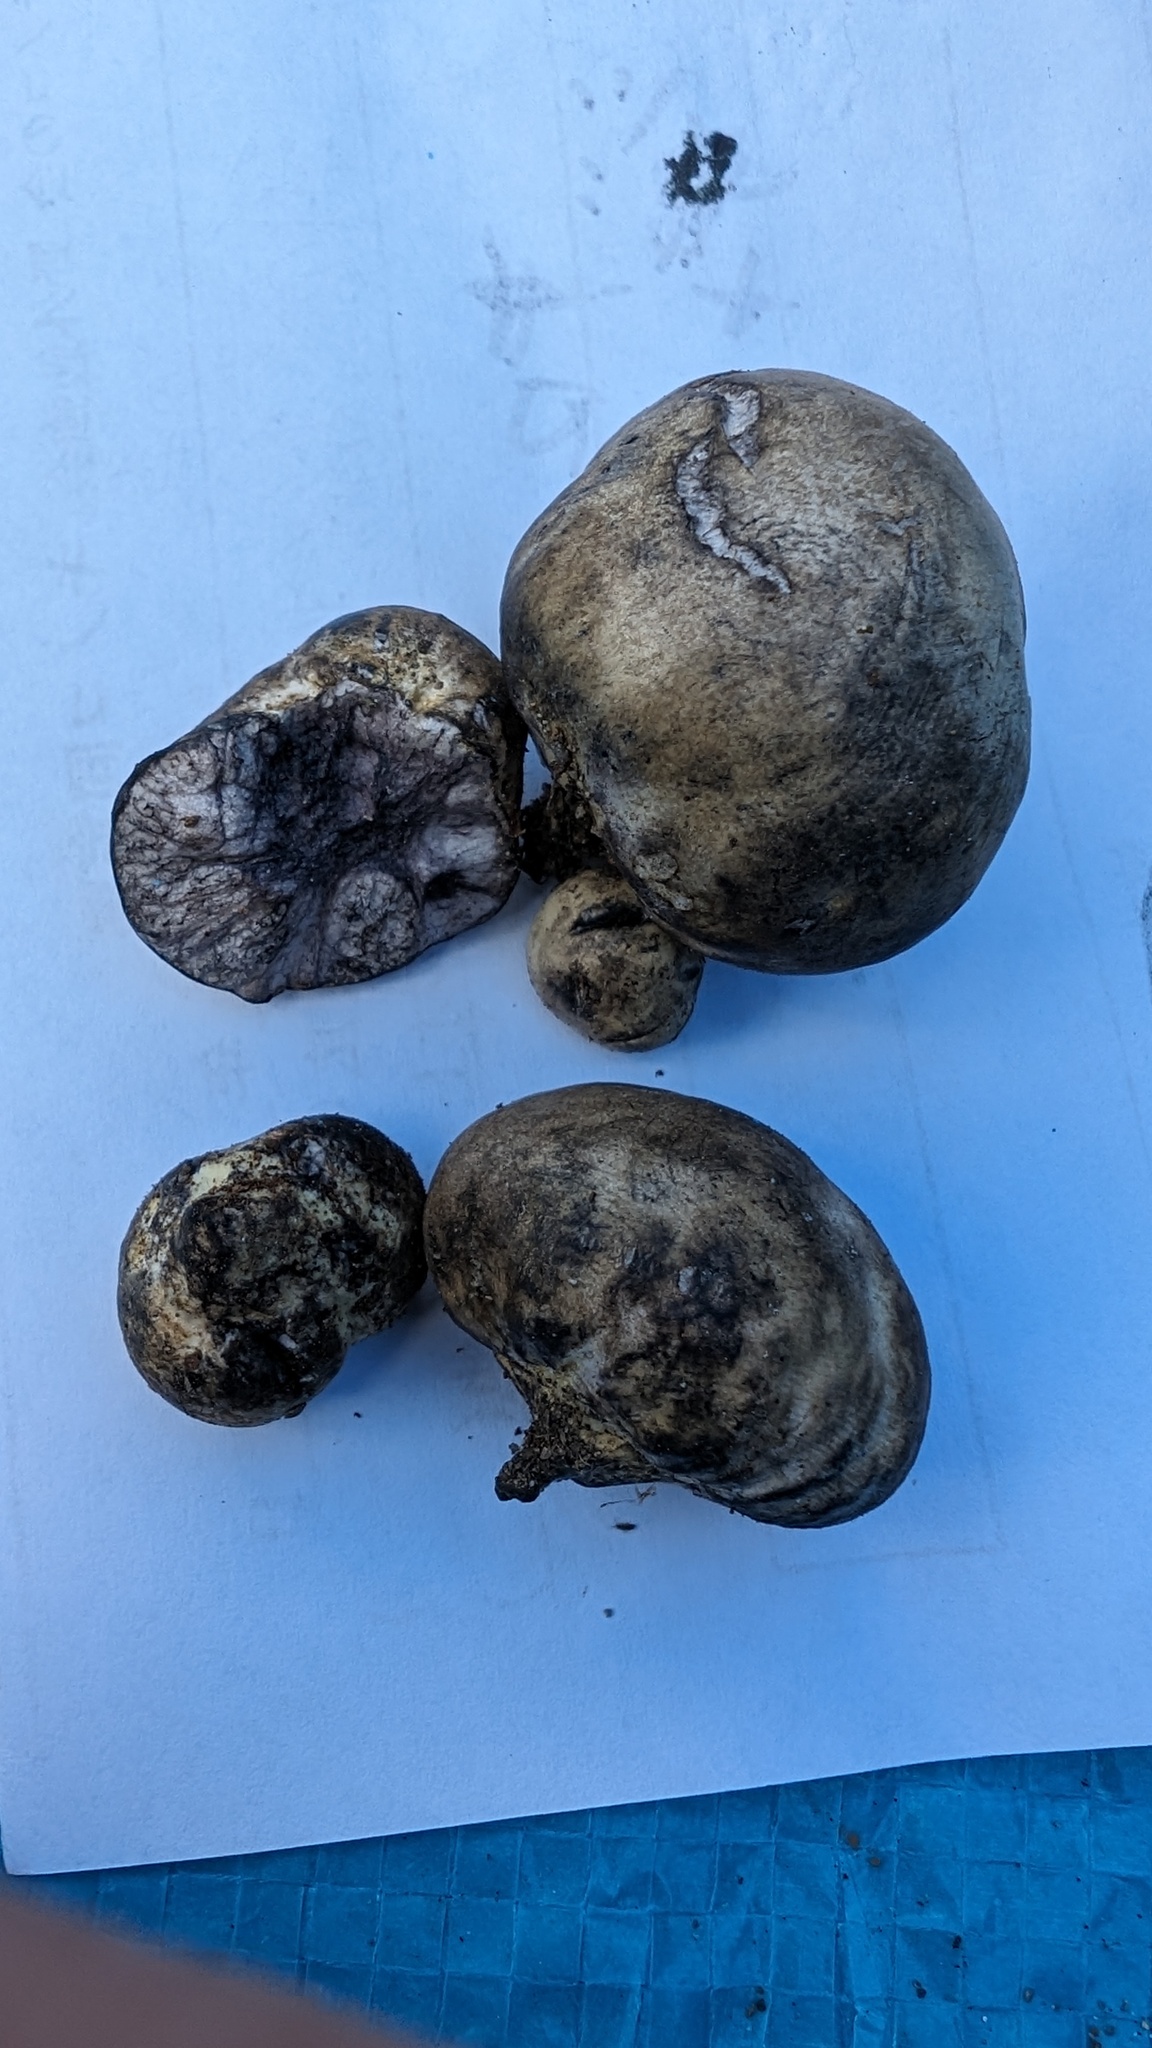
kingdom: Fungi
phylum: Basidiomycota
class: Agaricomycetes
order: Boletales
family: Boletaceae
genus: Heliogaster
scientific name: Heliogaster columellifer
